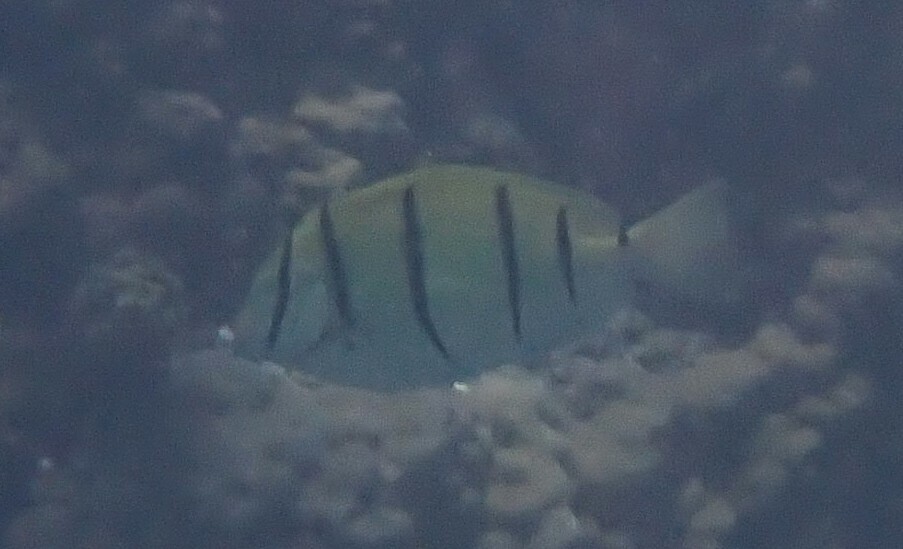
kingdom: Animalia
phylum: Chordata
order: Perciformes
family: Acanthuridae
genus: Acanthurus
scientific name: Acanthurus triostegus
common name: Convict surgeonfish
